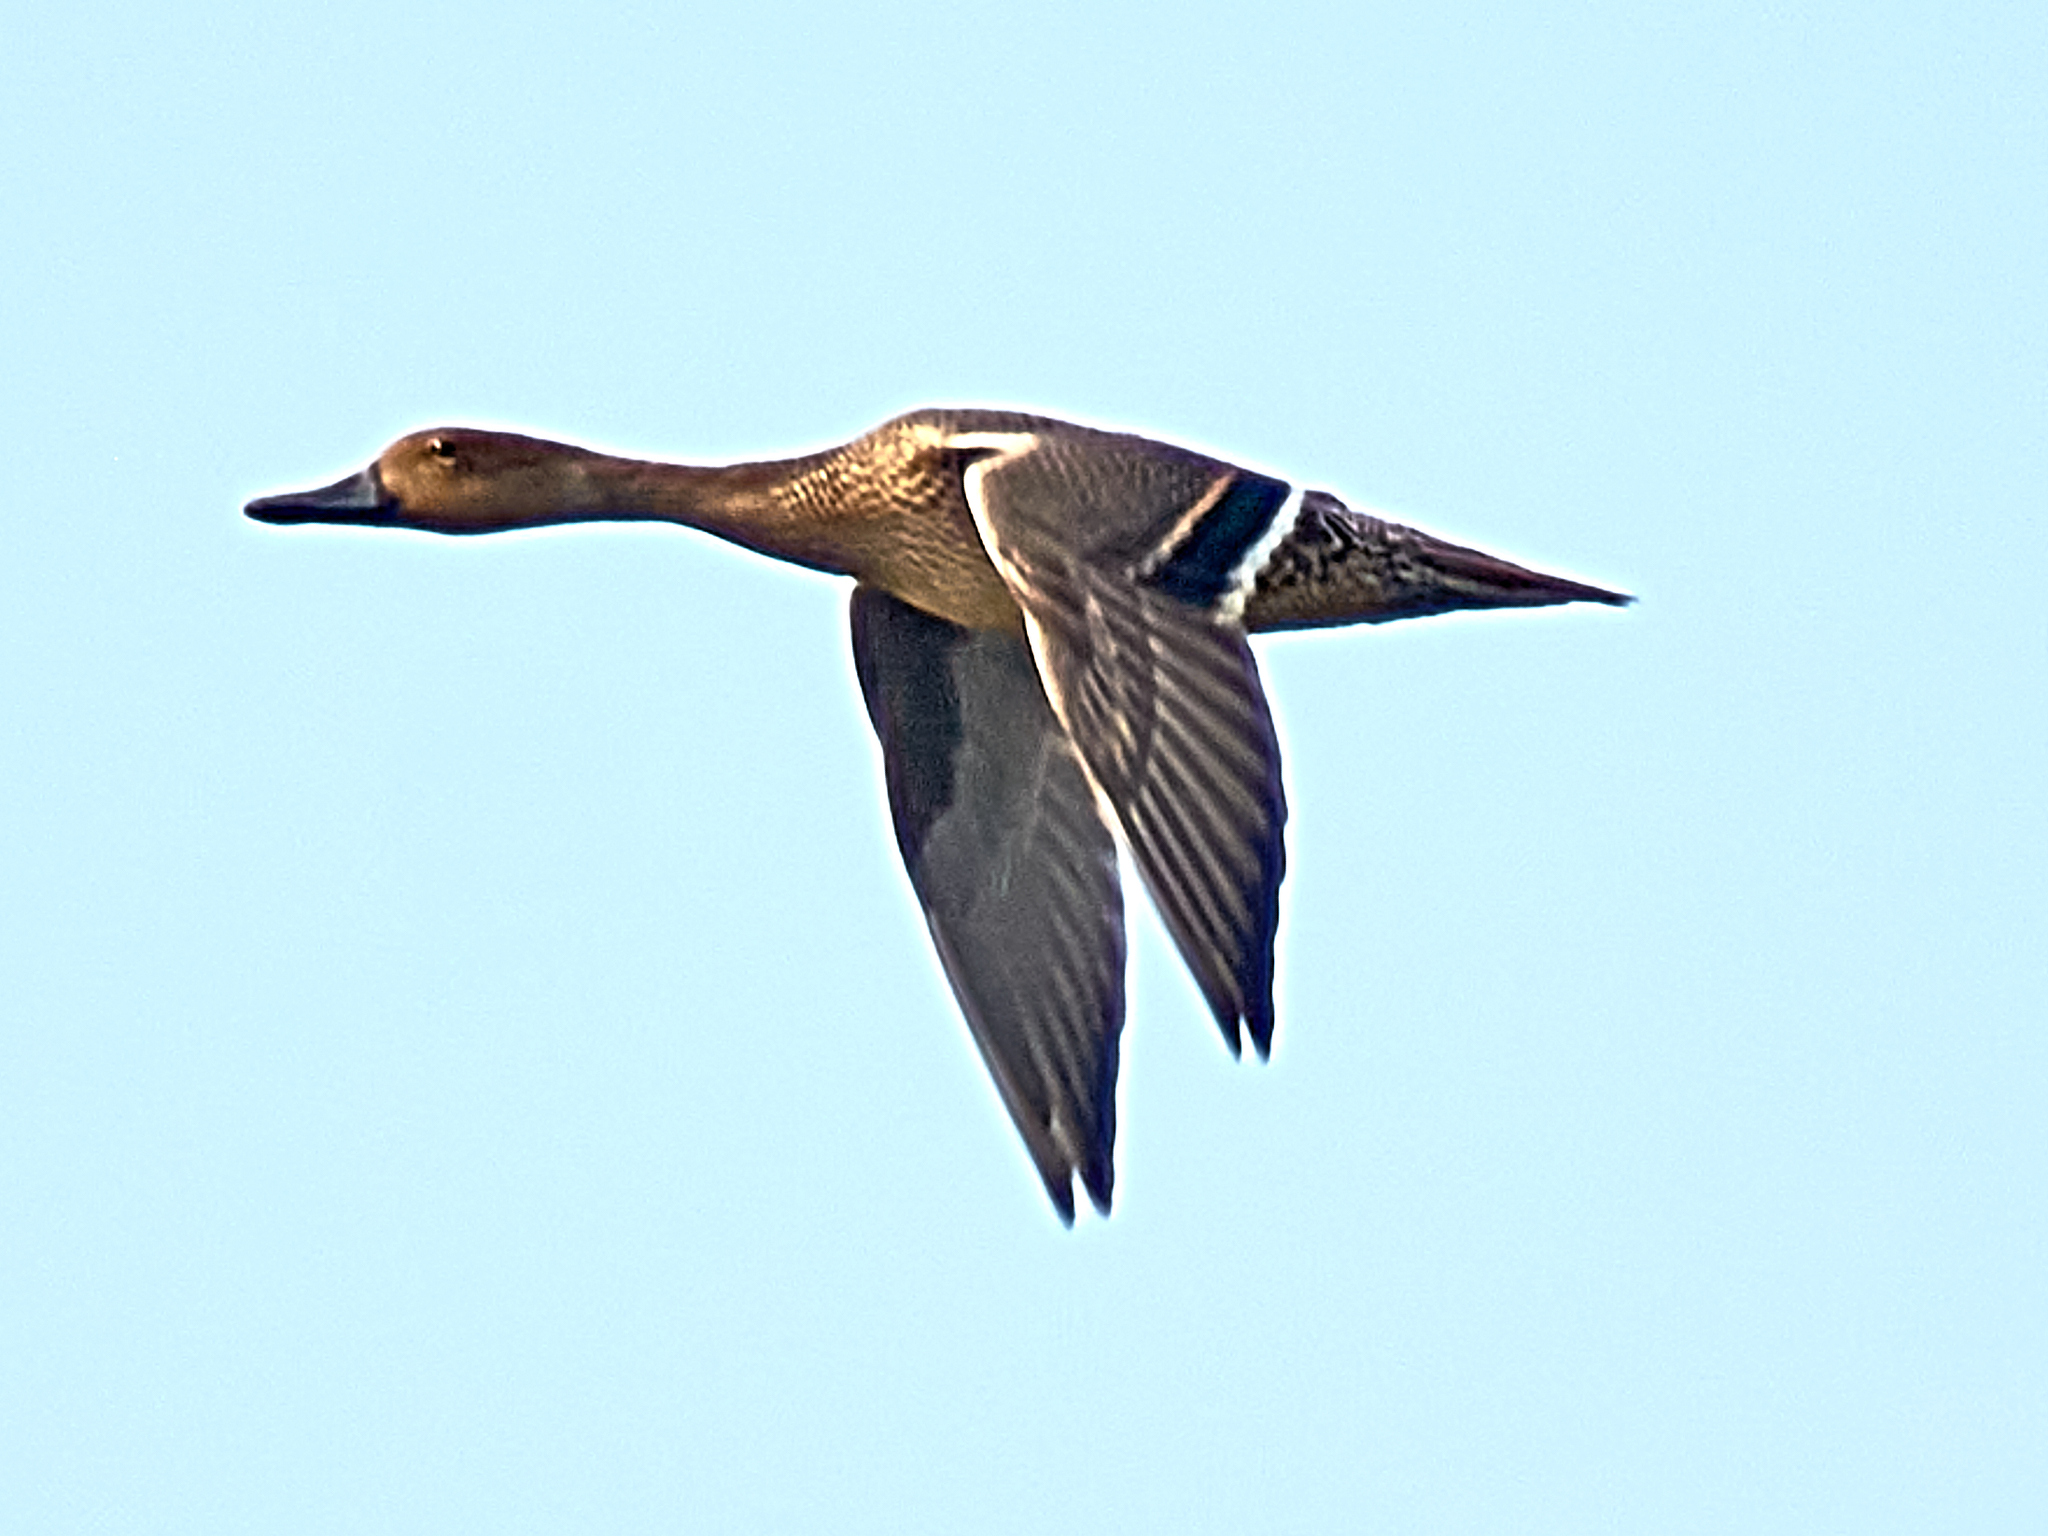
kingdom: Animalia
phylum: Chordata
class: Aves
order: Anseriformes
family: Anatidae
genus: Anas
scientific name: Anas acuta
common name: Northern pintail
